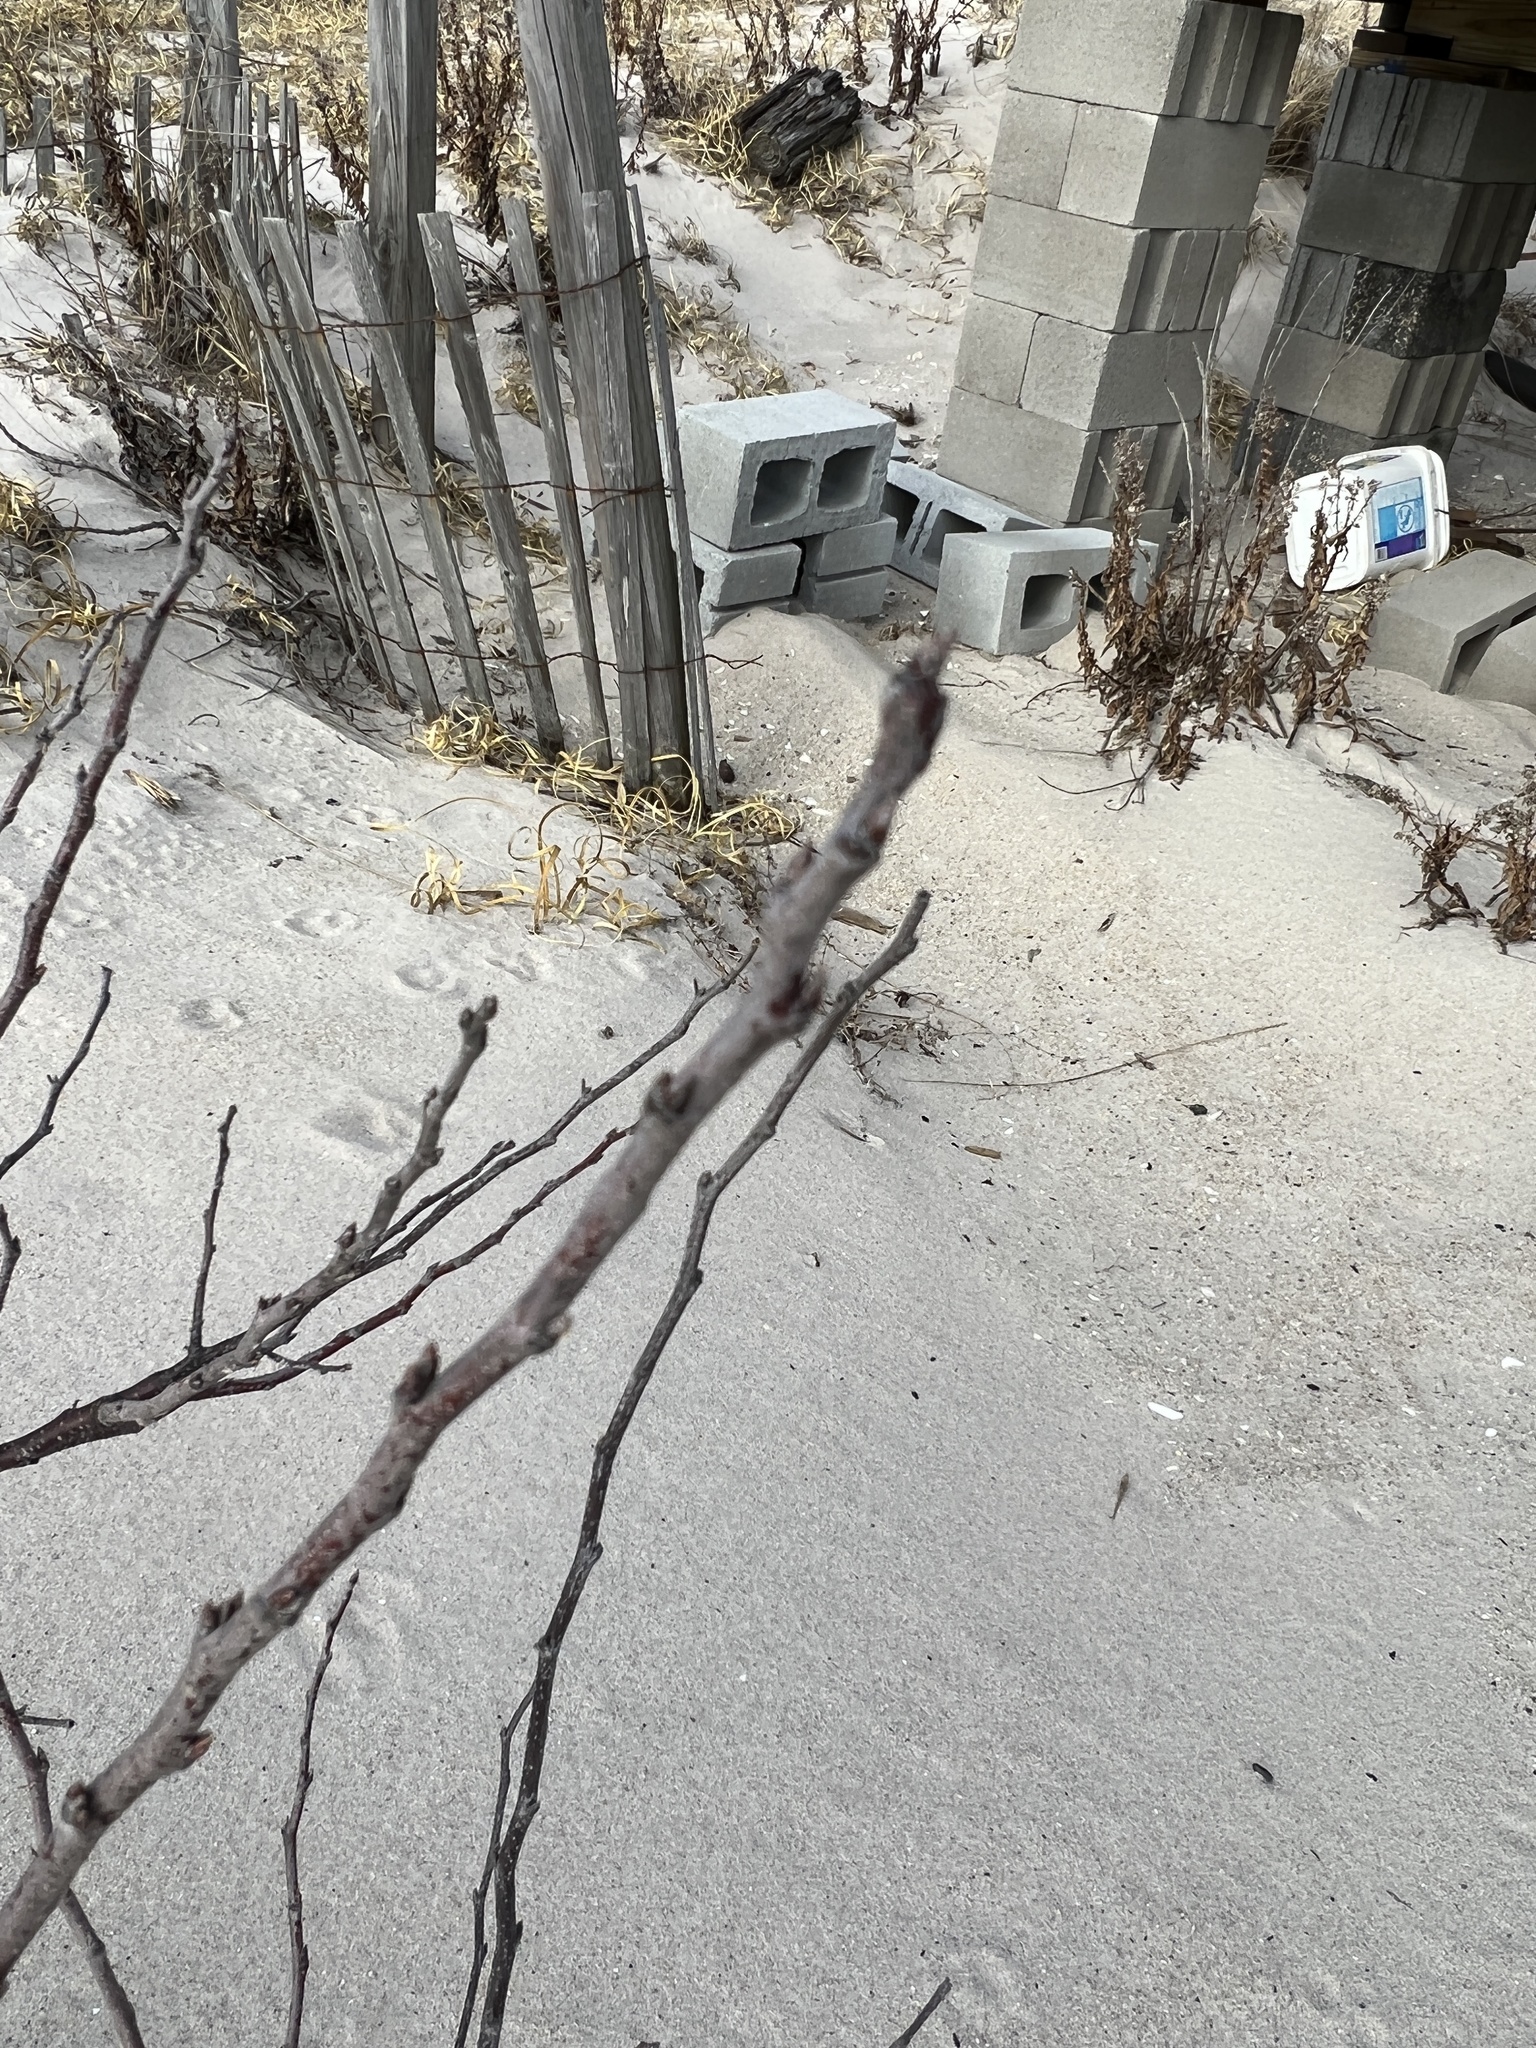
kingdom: Plantae
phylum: Tracheophyta
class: Magnoliopsida
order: Rosales
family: Rosaceae
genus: Prunus
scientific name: Prunus maritima
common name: Beach plum
